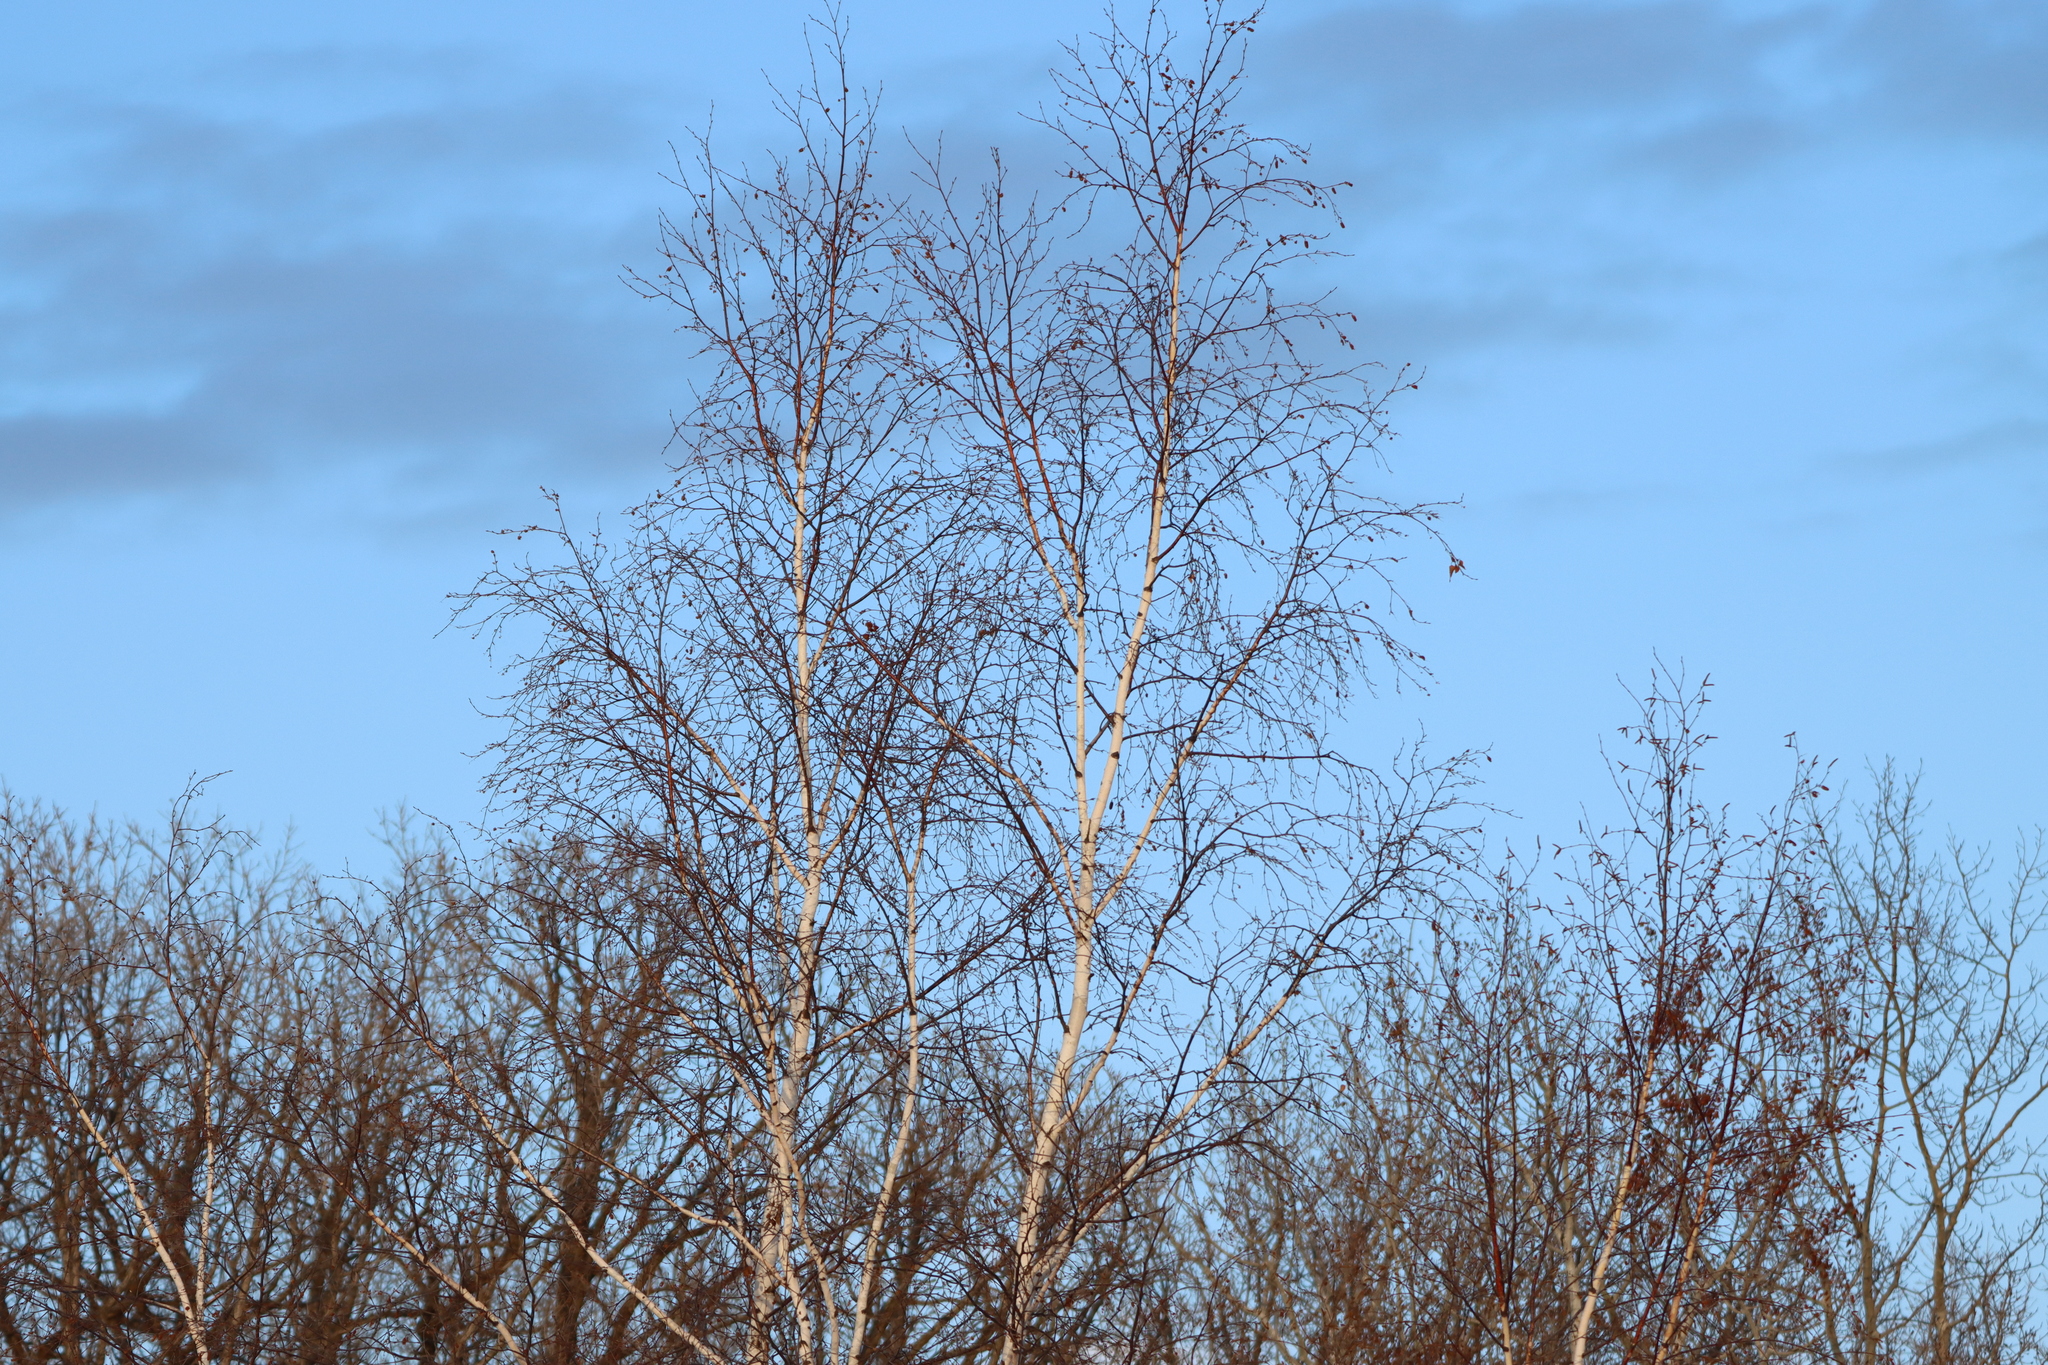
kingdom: Plantae
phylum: Tracheophyta
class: Magnoliopsida
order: Fagales
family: Betulaceae
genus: Betula
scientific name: Betula papyrifera
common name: Paper birch
